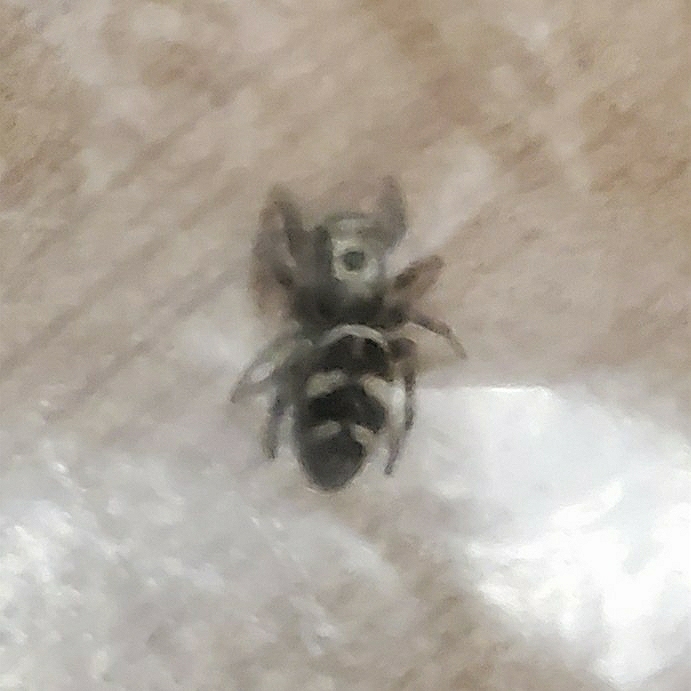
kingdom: Animalia
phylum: Arthropoda
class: Arachnida
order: Araneae
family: Salticidae
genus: Salticus
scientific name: Salticus scenicus
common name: Zebra jumper
